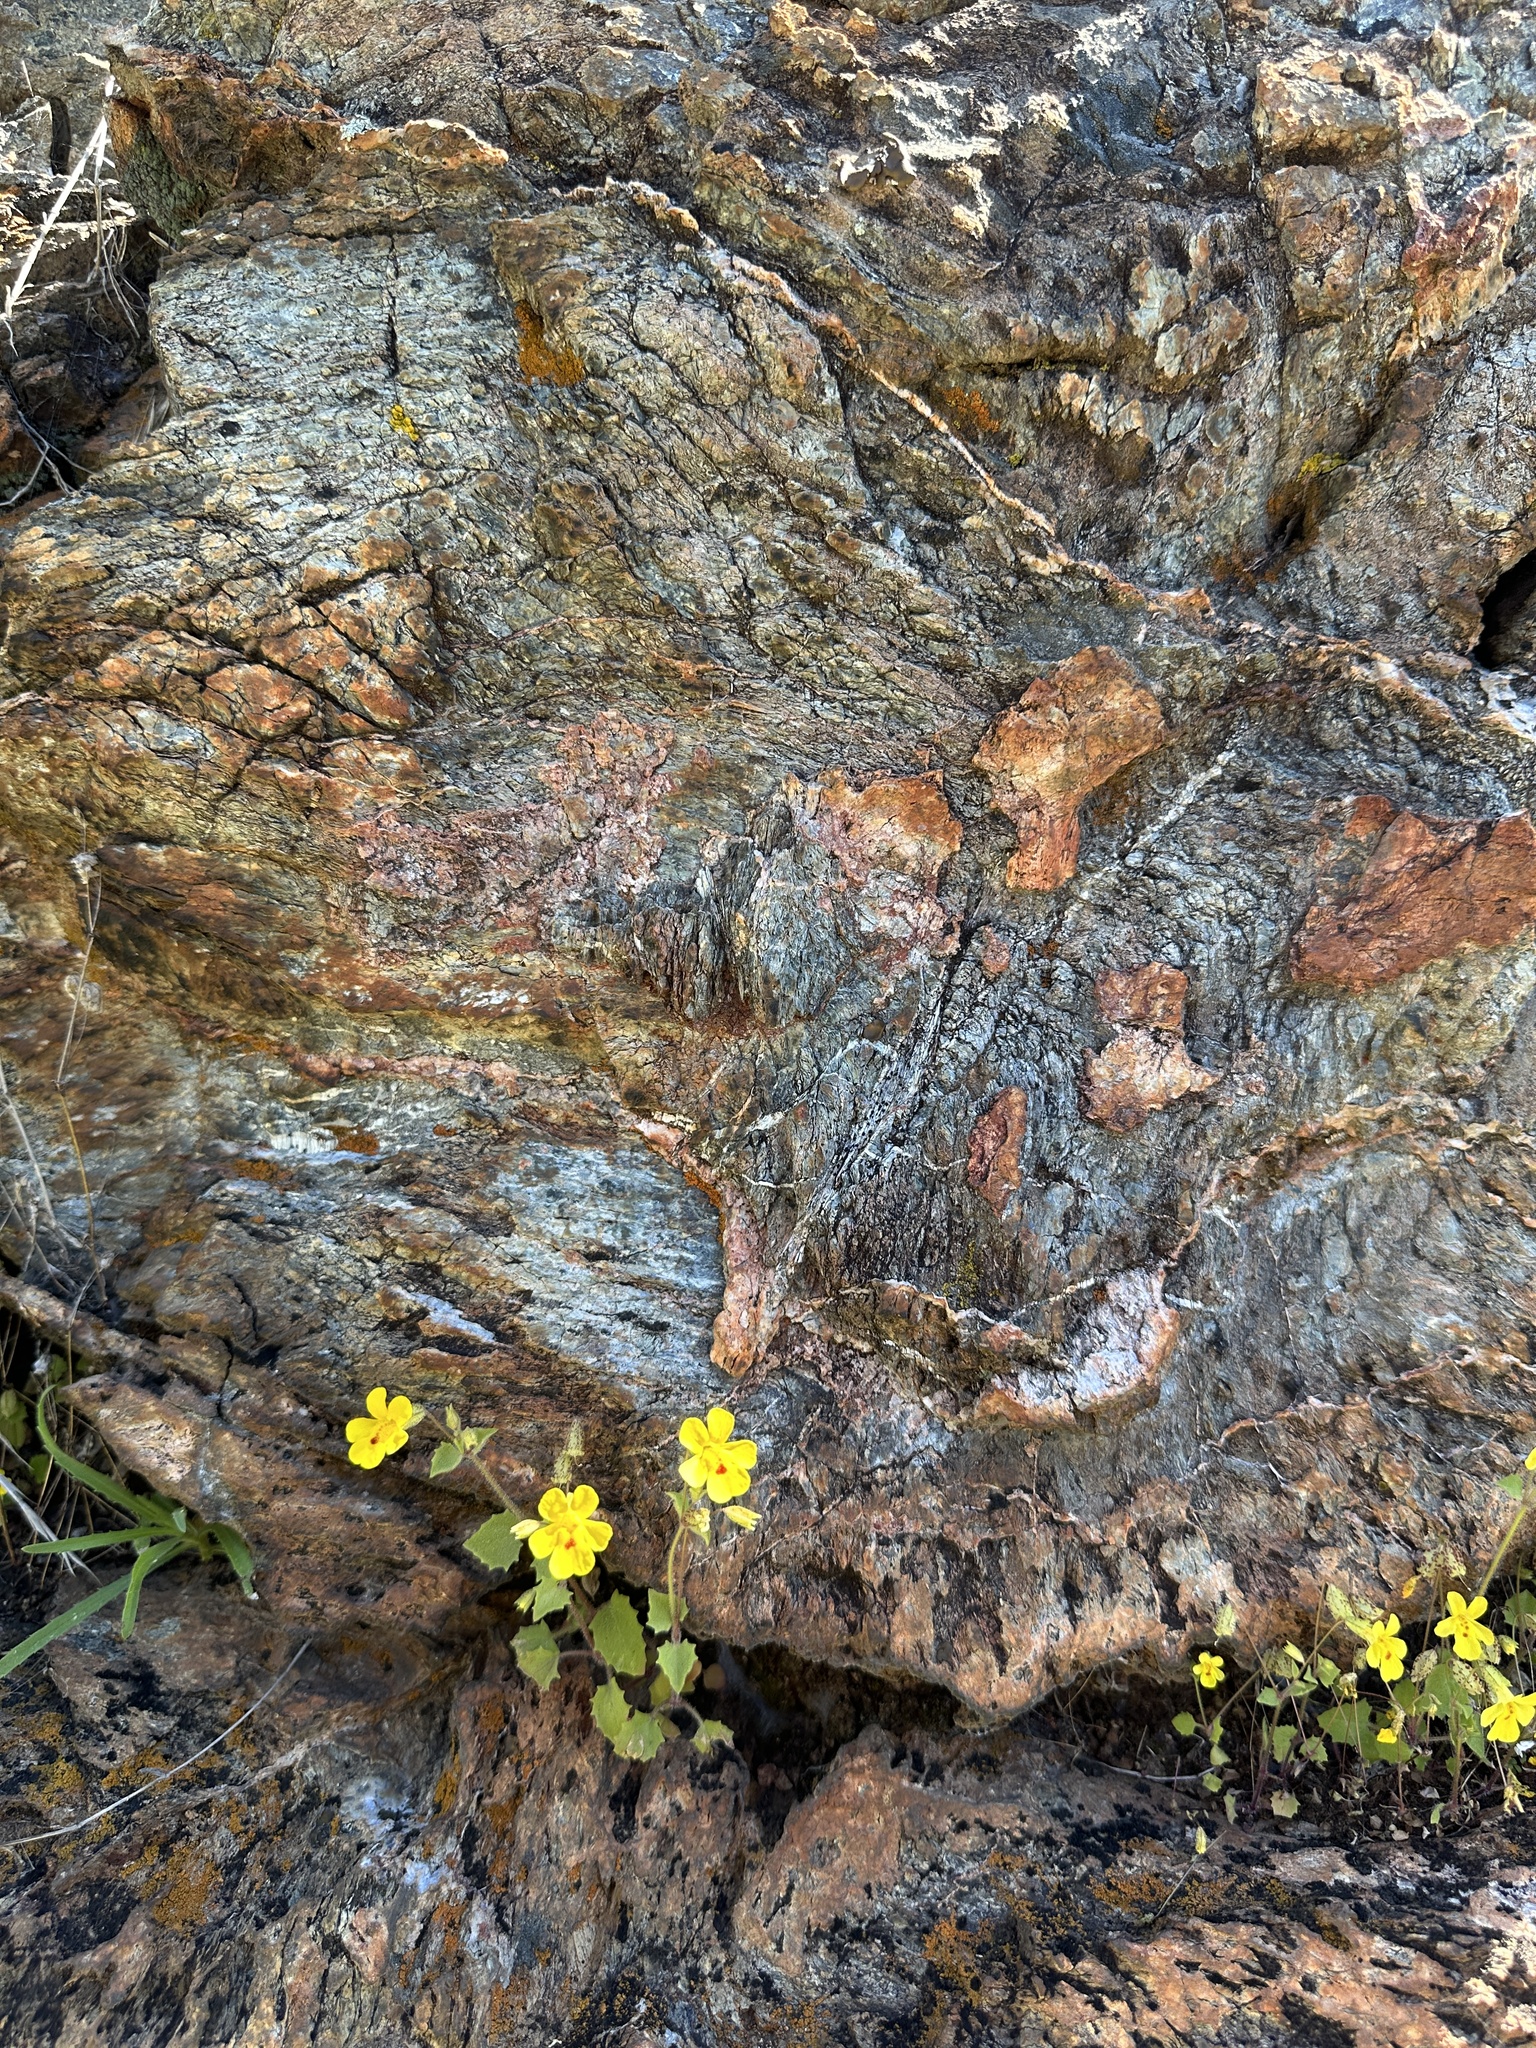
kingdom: Plantae
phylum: Tracheophyta
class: Magnoliopsida
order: Lamiales
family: Phrymaceae
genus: Erythranthe
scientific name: Erythranthe marmorata
